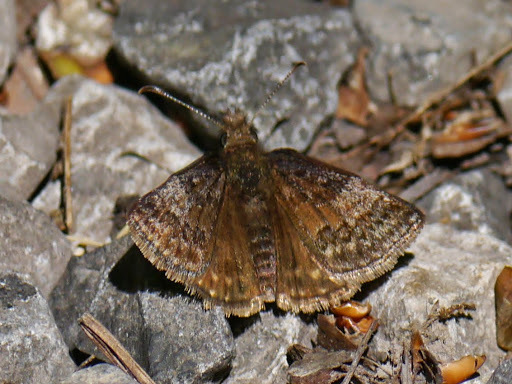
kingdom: Animalia
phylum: Arthropoda
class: Insecta
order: Lepidoptera
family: Hesperiidae
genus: Erynnis
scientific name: Erynnis icelus
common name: Dreamy duskywing
